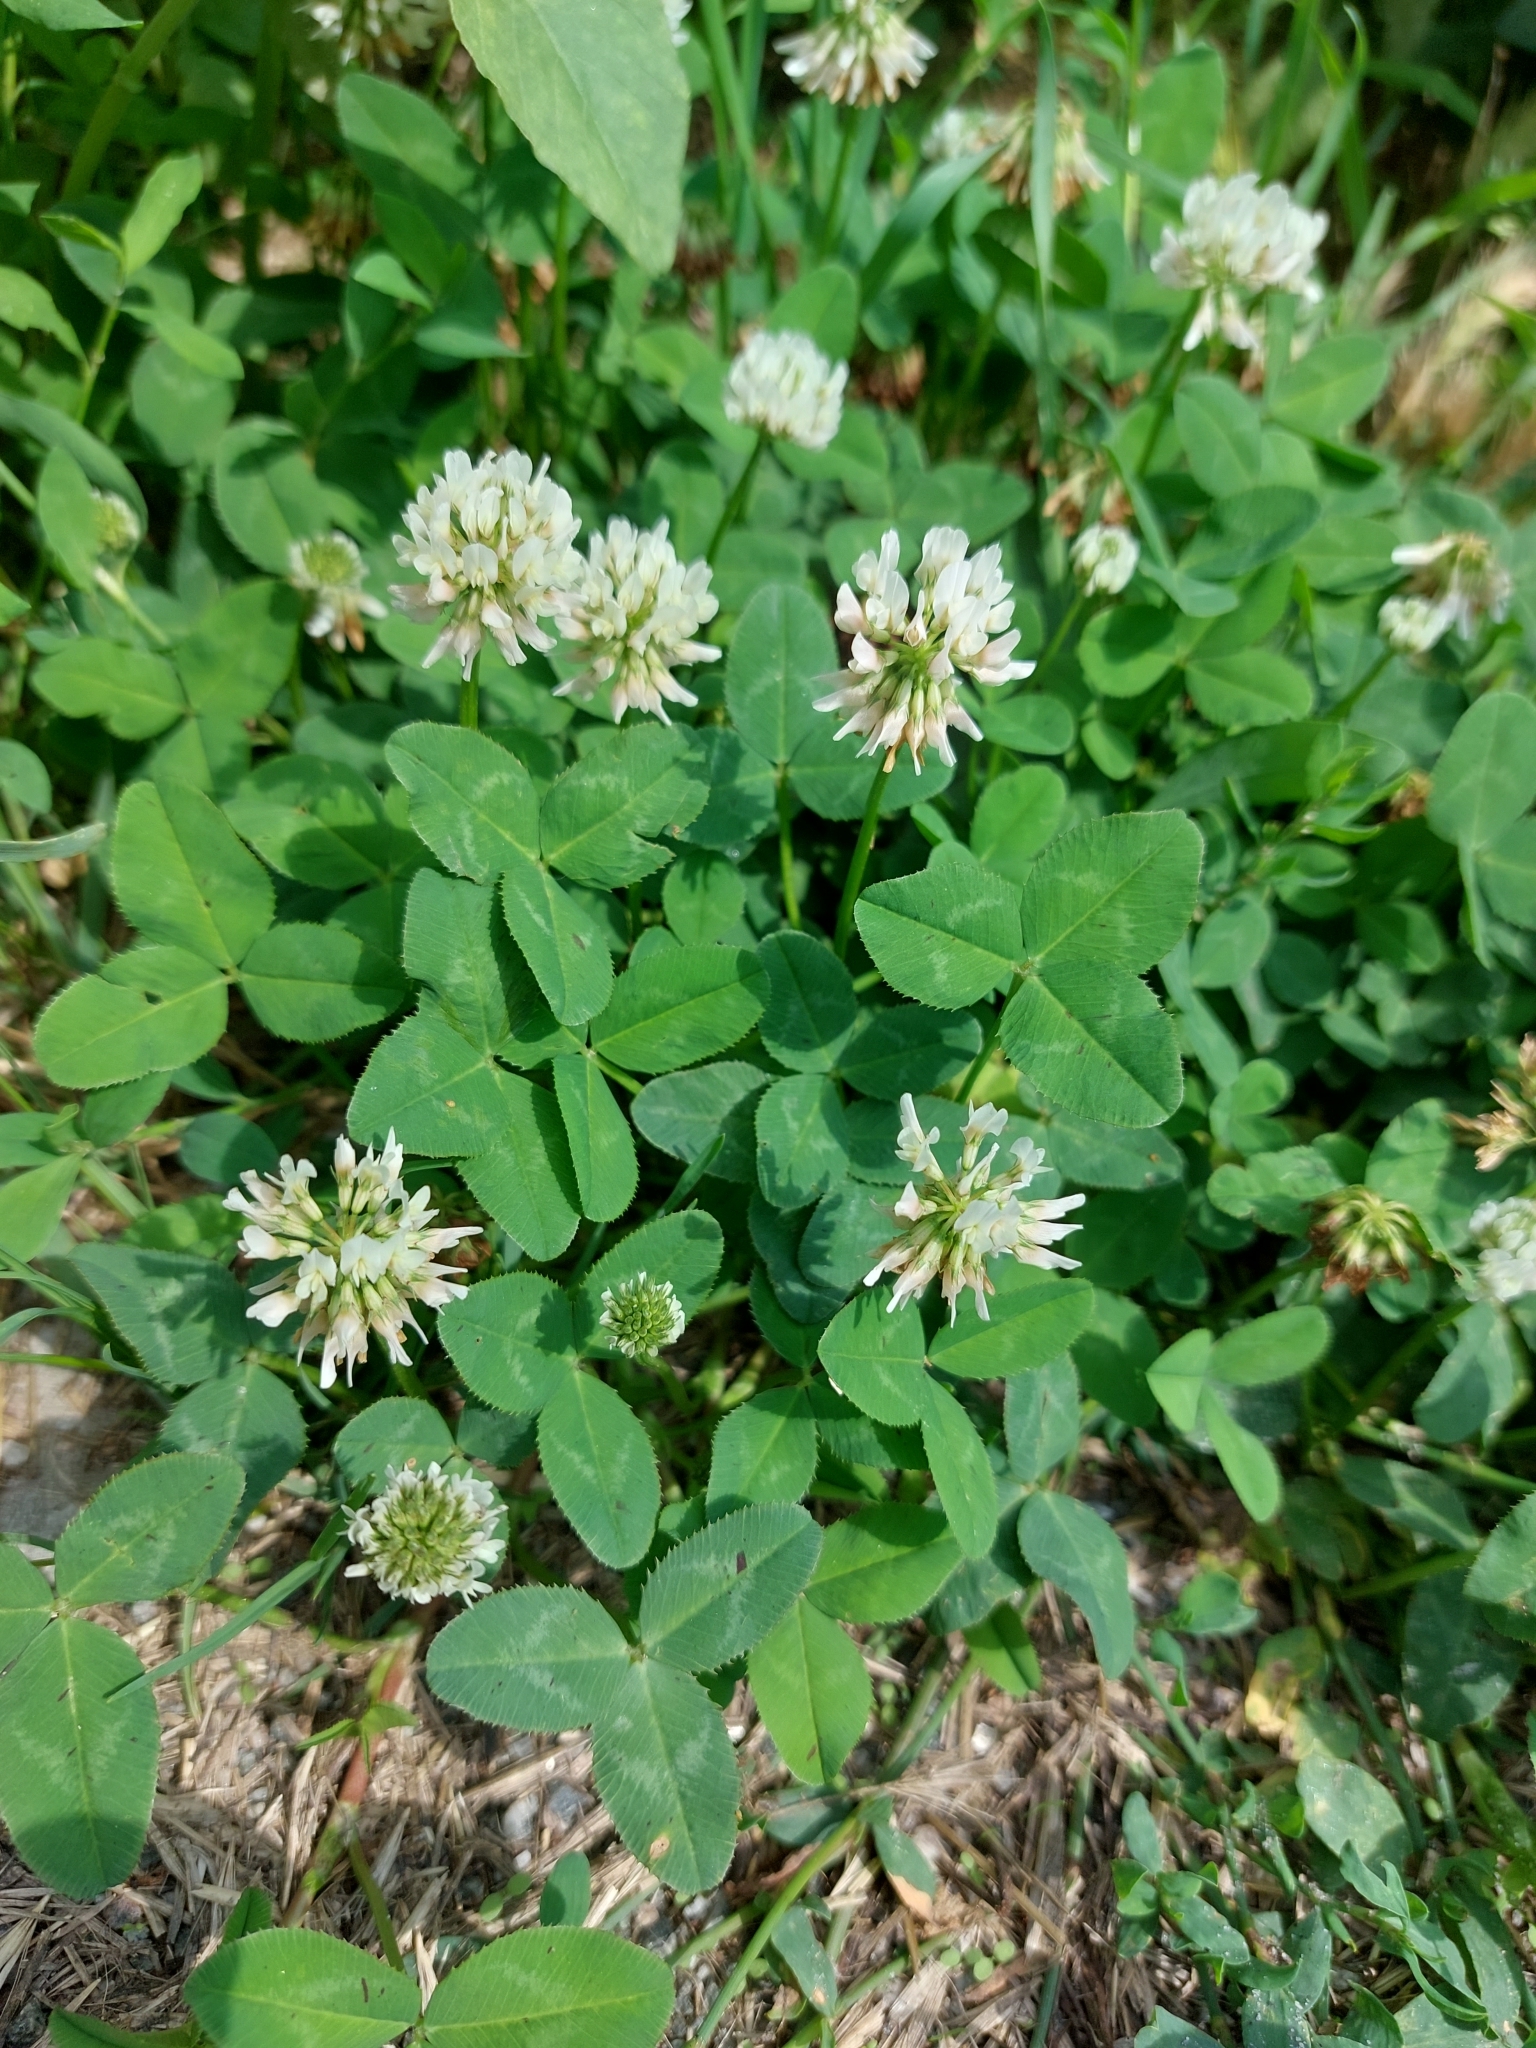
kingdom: Plantae
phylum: Tracheophyta
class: Magnoliopsida
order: Fabales
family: Fabaceae
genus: Trifolium
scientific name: Trifolium repens
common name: White clover
